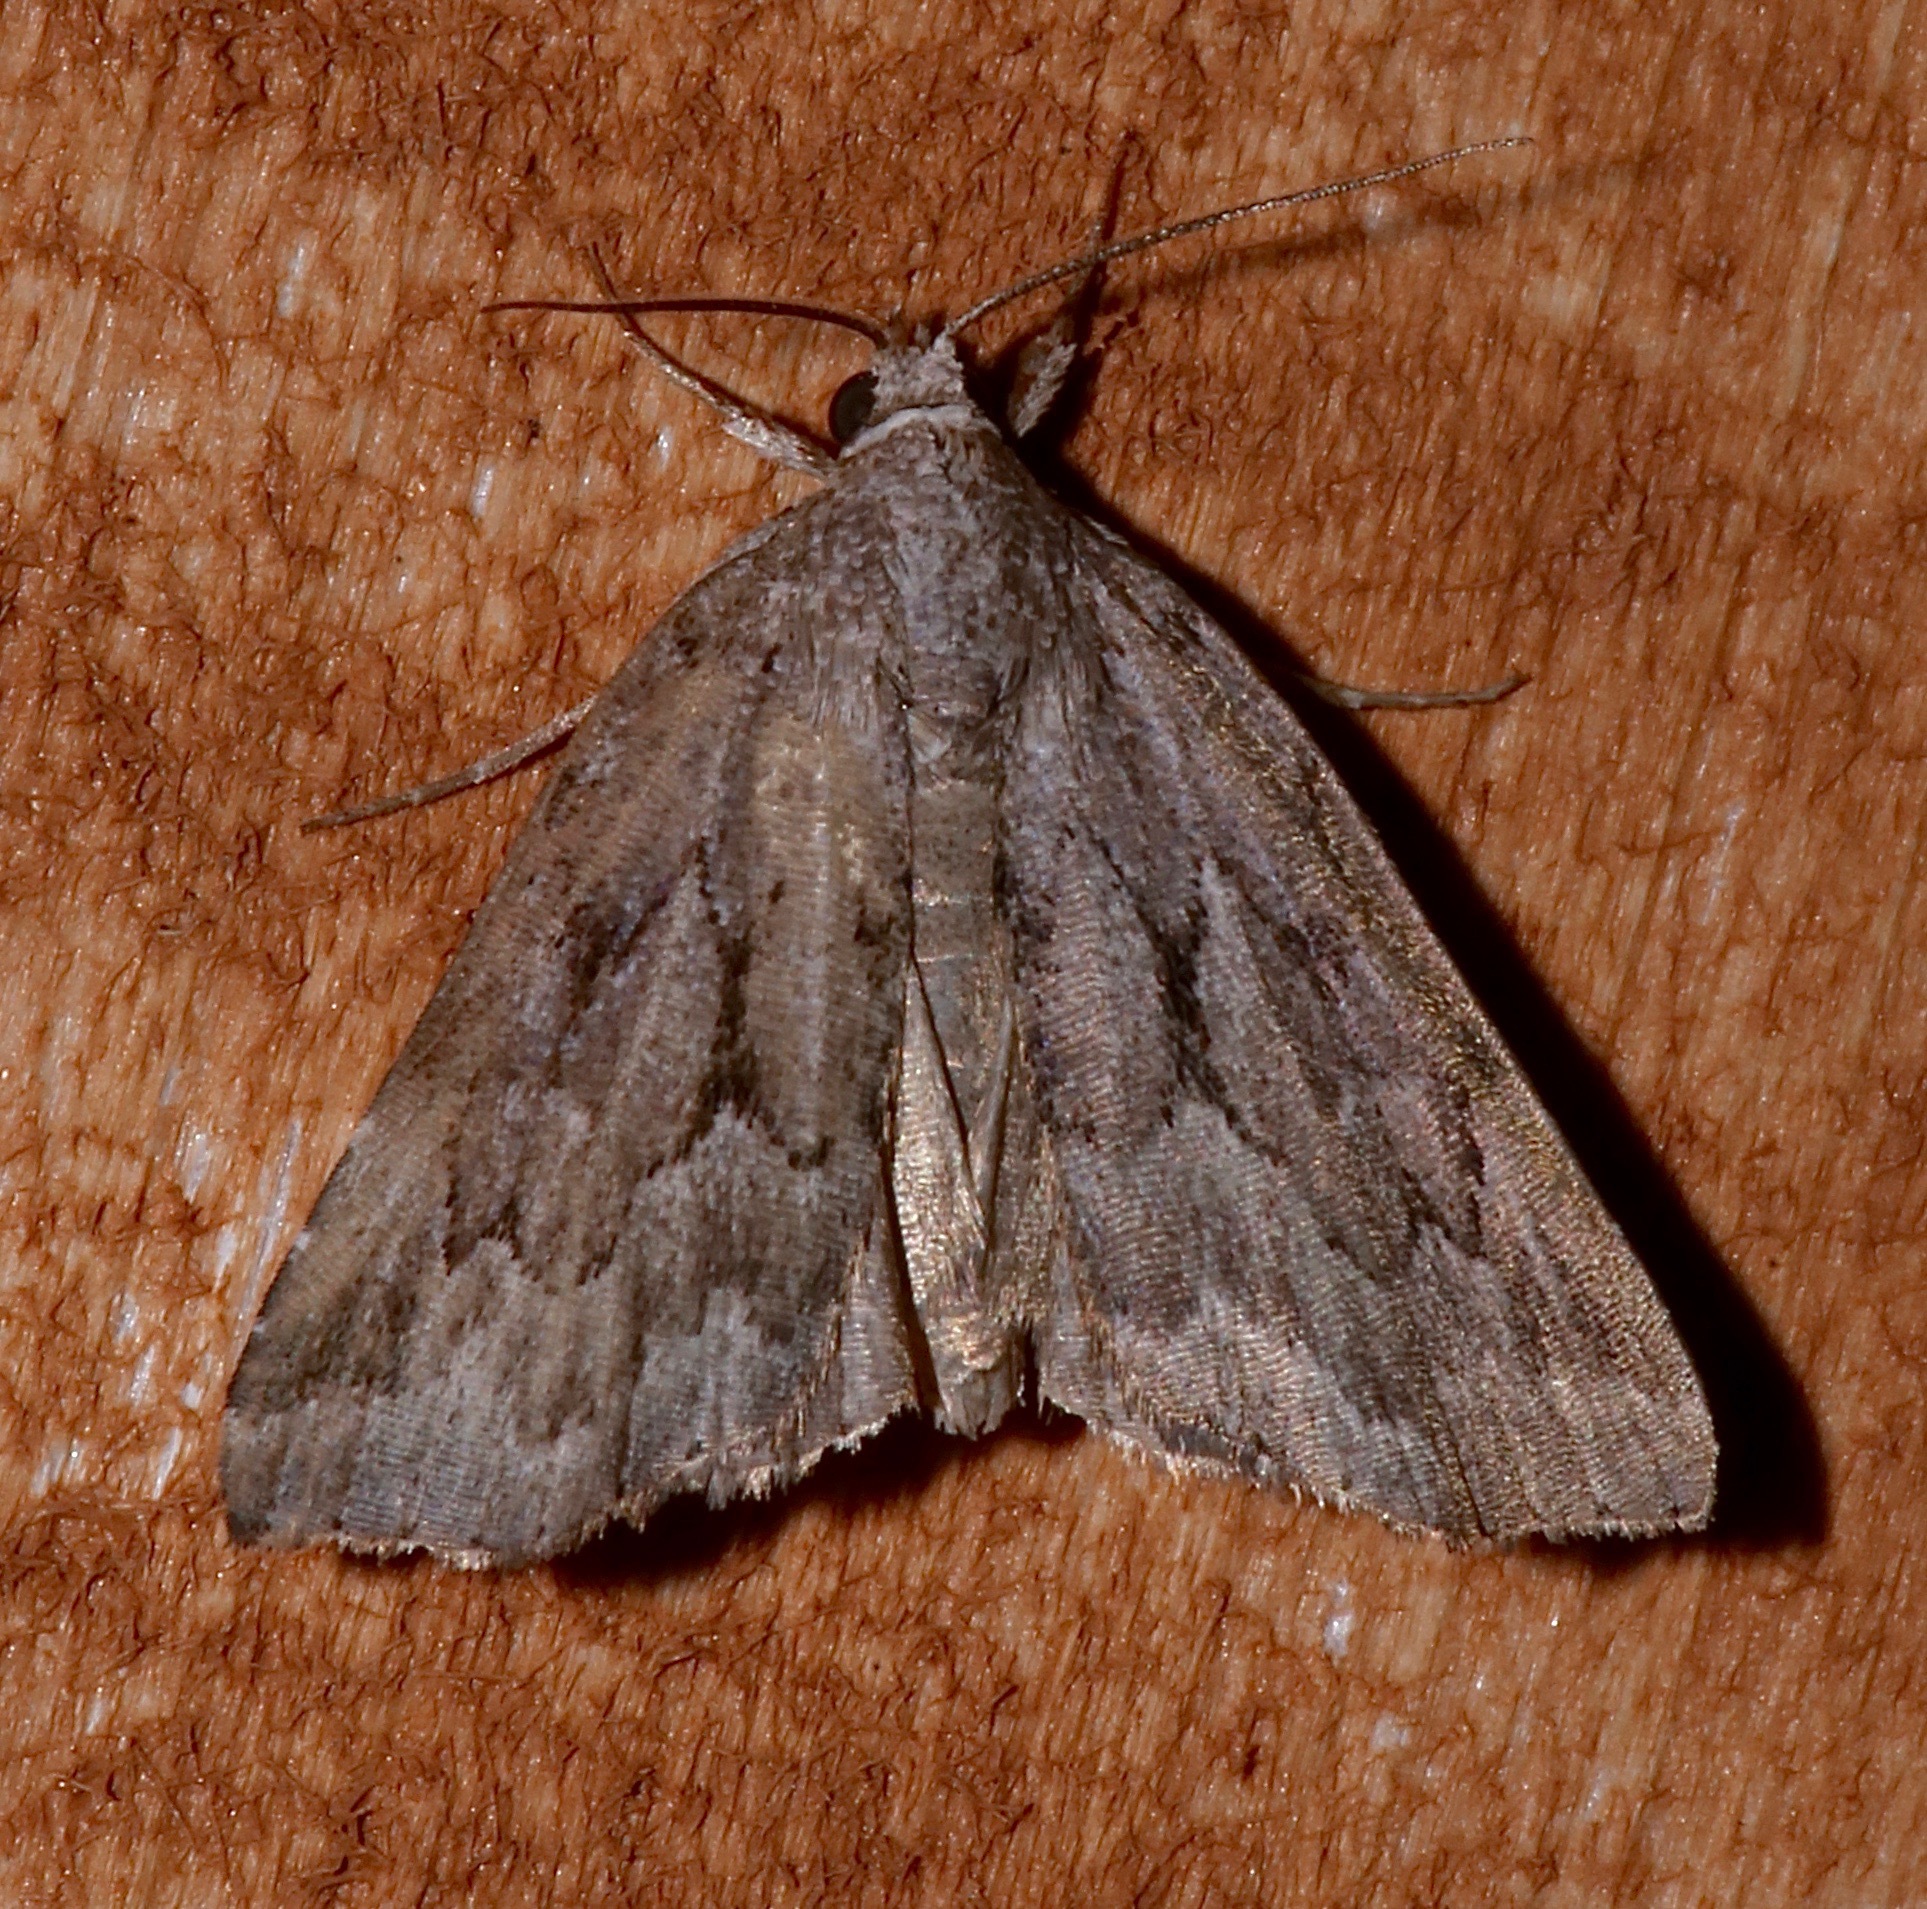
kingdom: Animalia
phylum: Arthropoda
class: Insecta
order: Lepidoptera
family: Erebidae
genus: Cutina
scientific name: Cutina albopunctella
